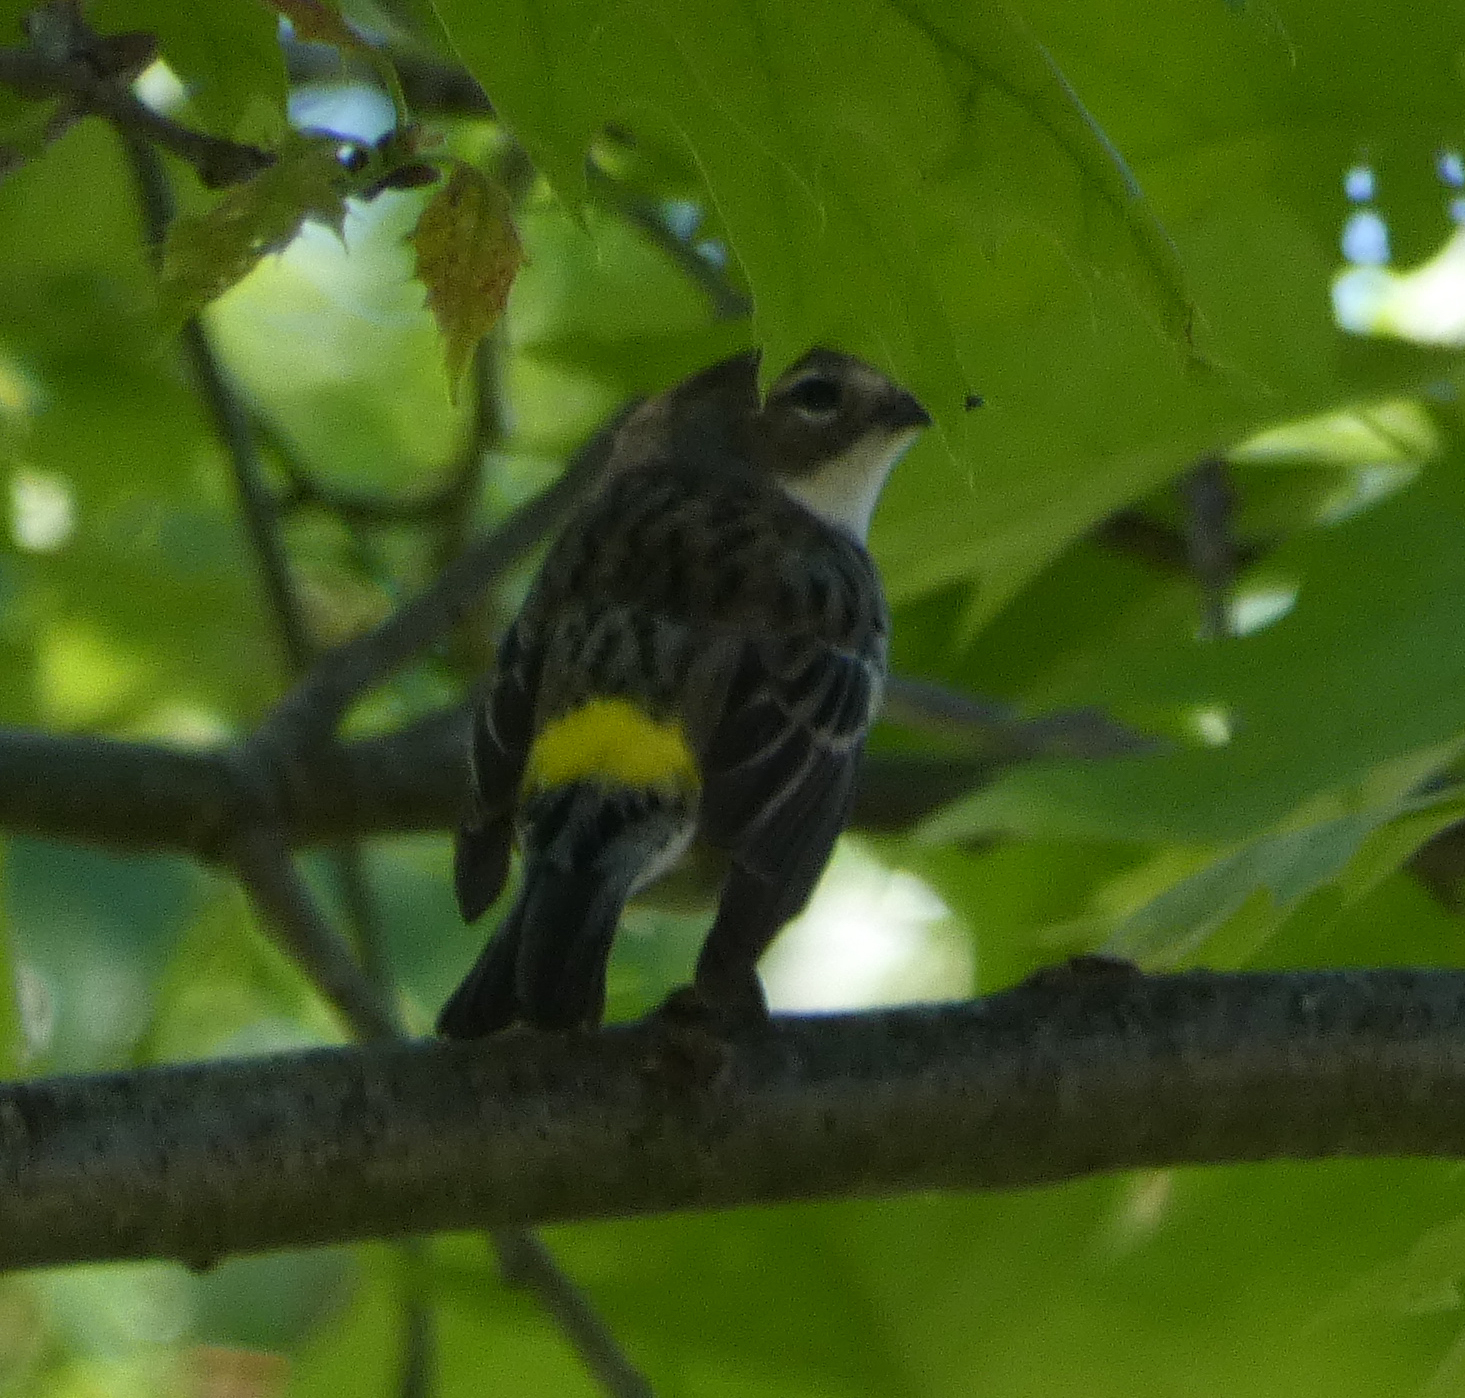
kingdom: Animalia
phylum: Chordata
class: Aves
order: Passeriformes
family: Parulidae
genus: Setophaga
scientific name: Setophaga coronata
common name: Myrtle warbler
